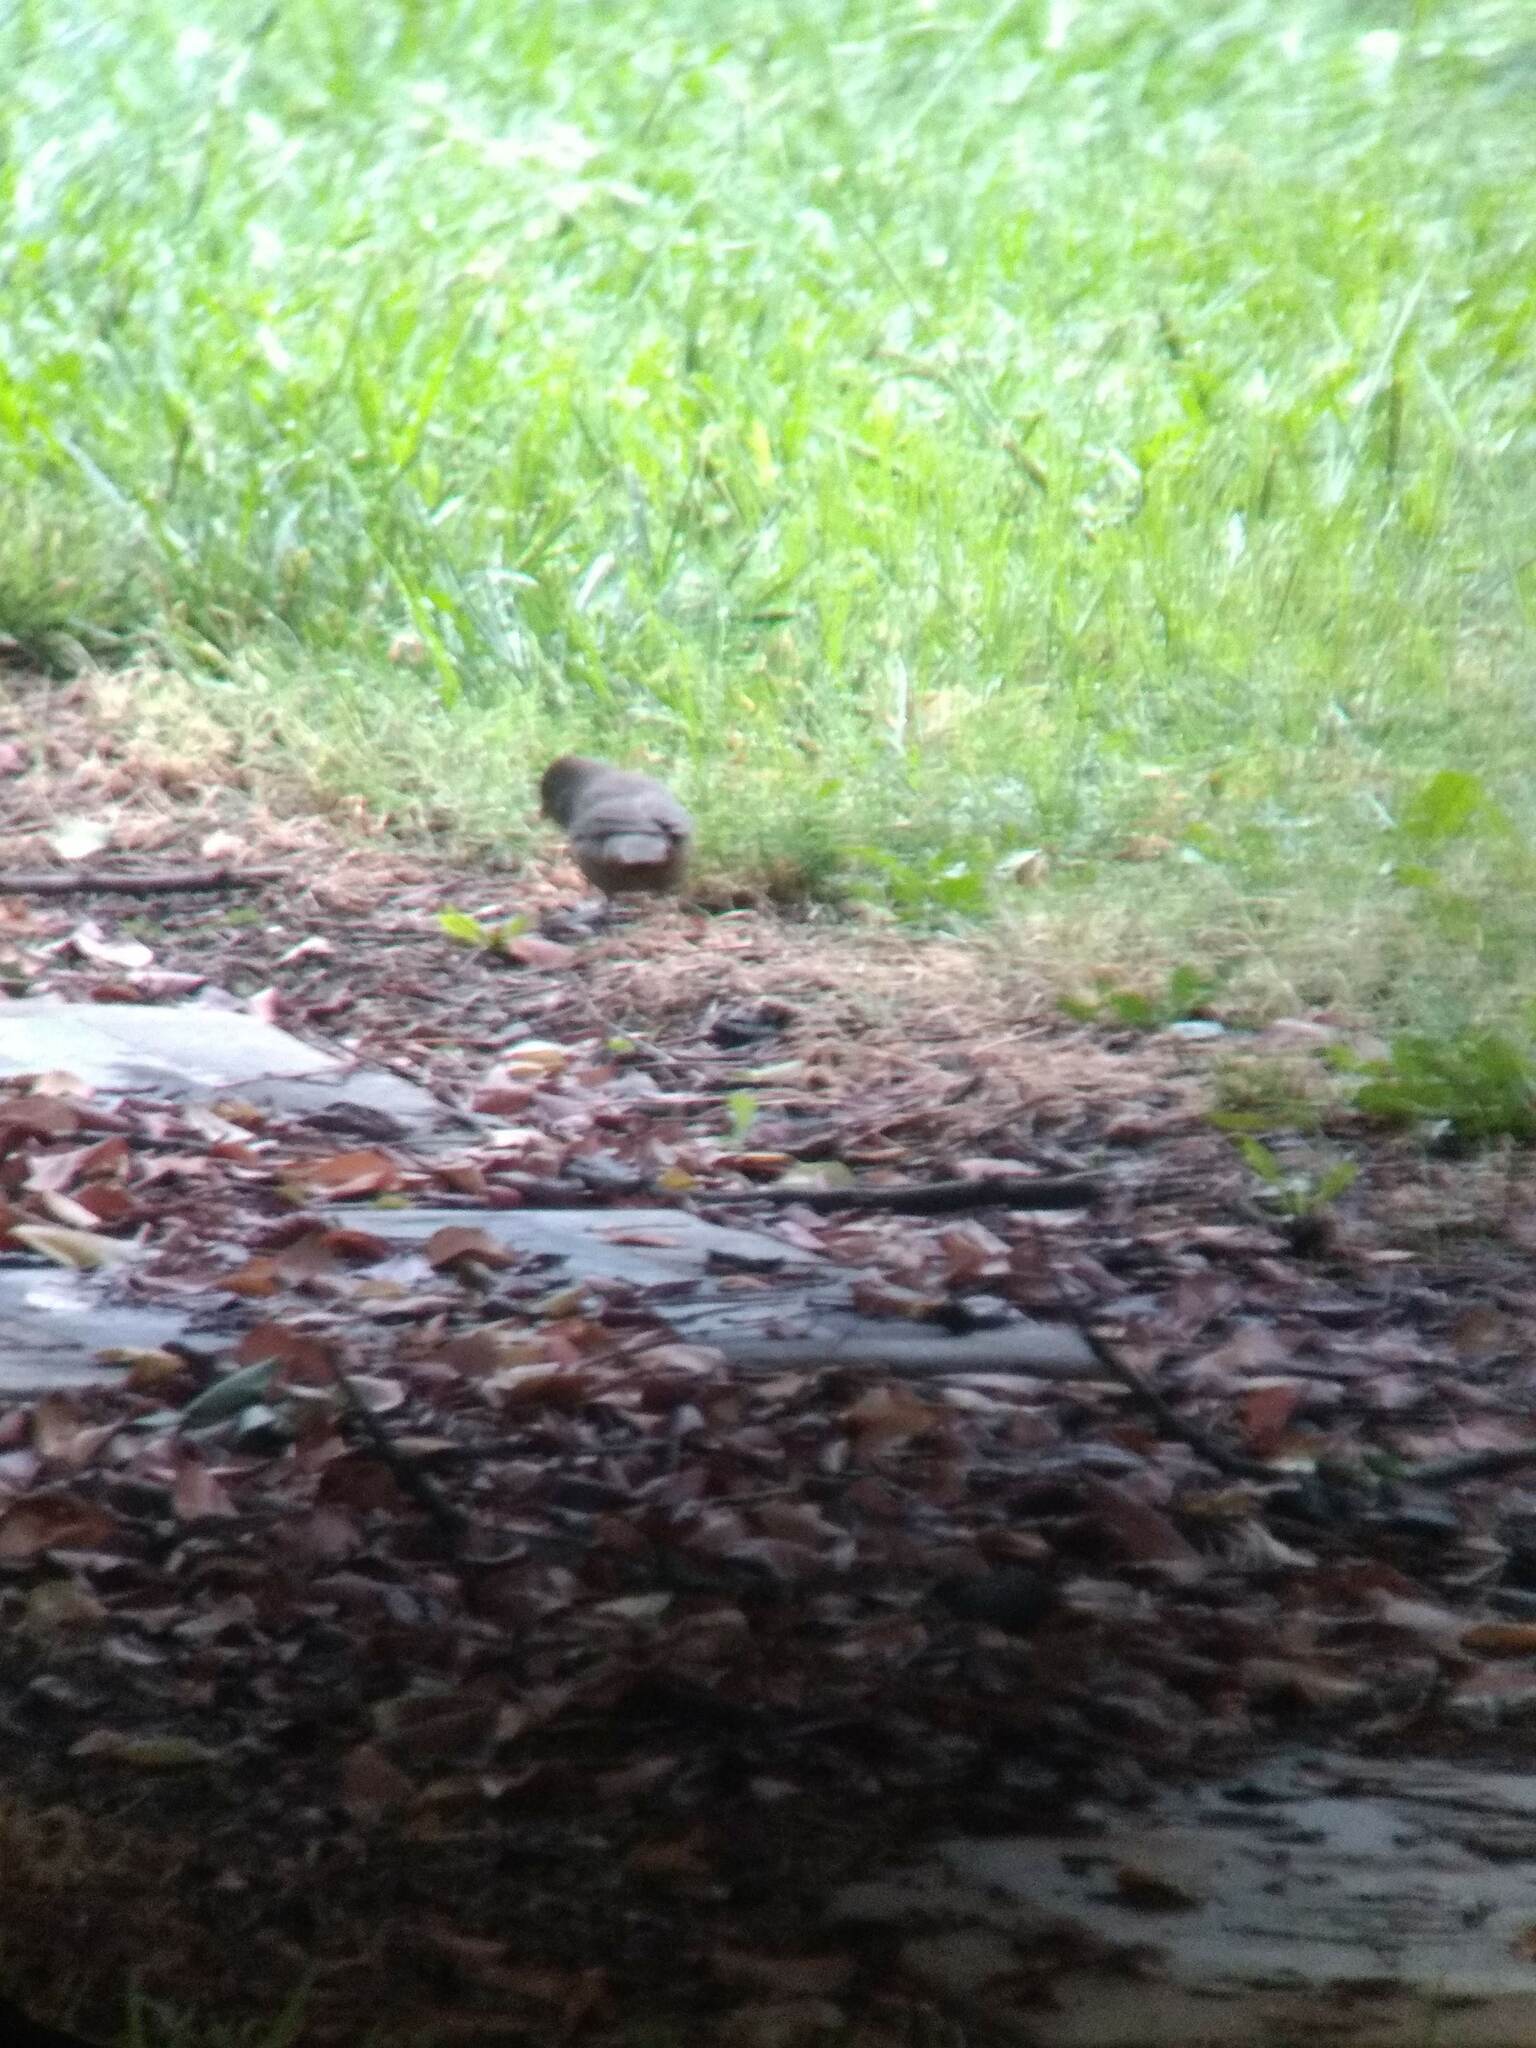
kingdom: Animalia
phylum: Chordata
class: Aves
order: Passeriformes
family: Passerellidae
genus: Melozone
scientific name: Melozone crissalis
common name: California towhee
